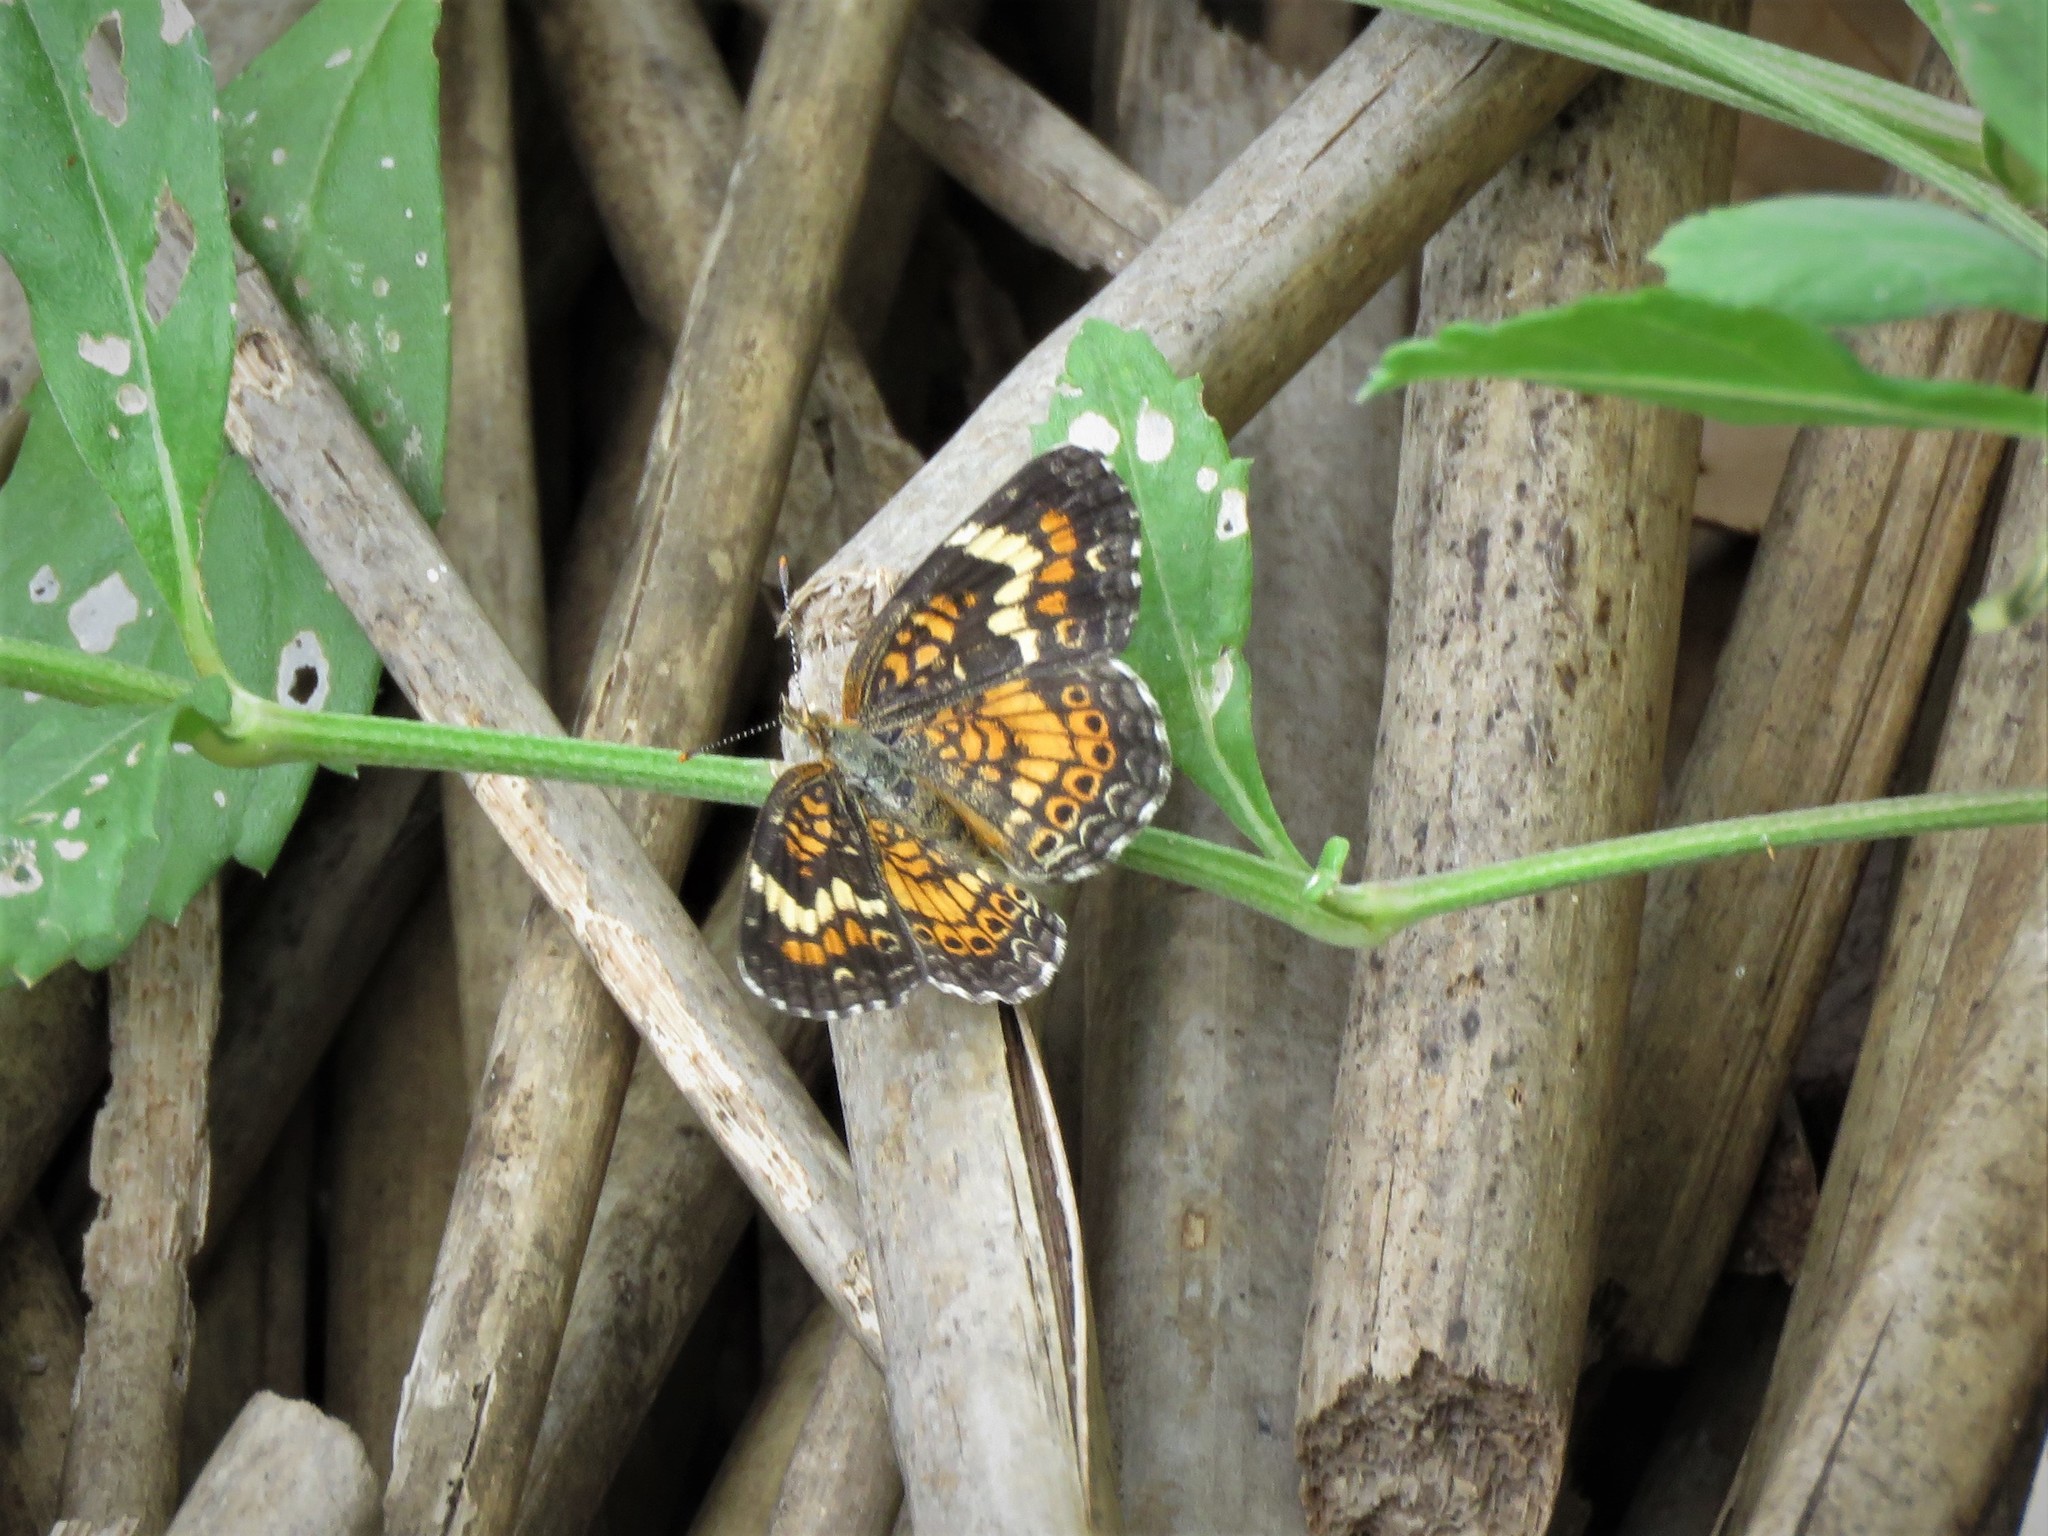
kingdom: Animalia
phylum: Arthropoda
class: Insecta
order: Lepidoptera
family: Nymphalidae
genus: Phyciodes
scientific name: Phyciodes phaon
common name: Phaon crescent
